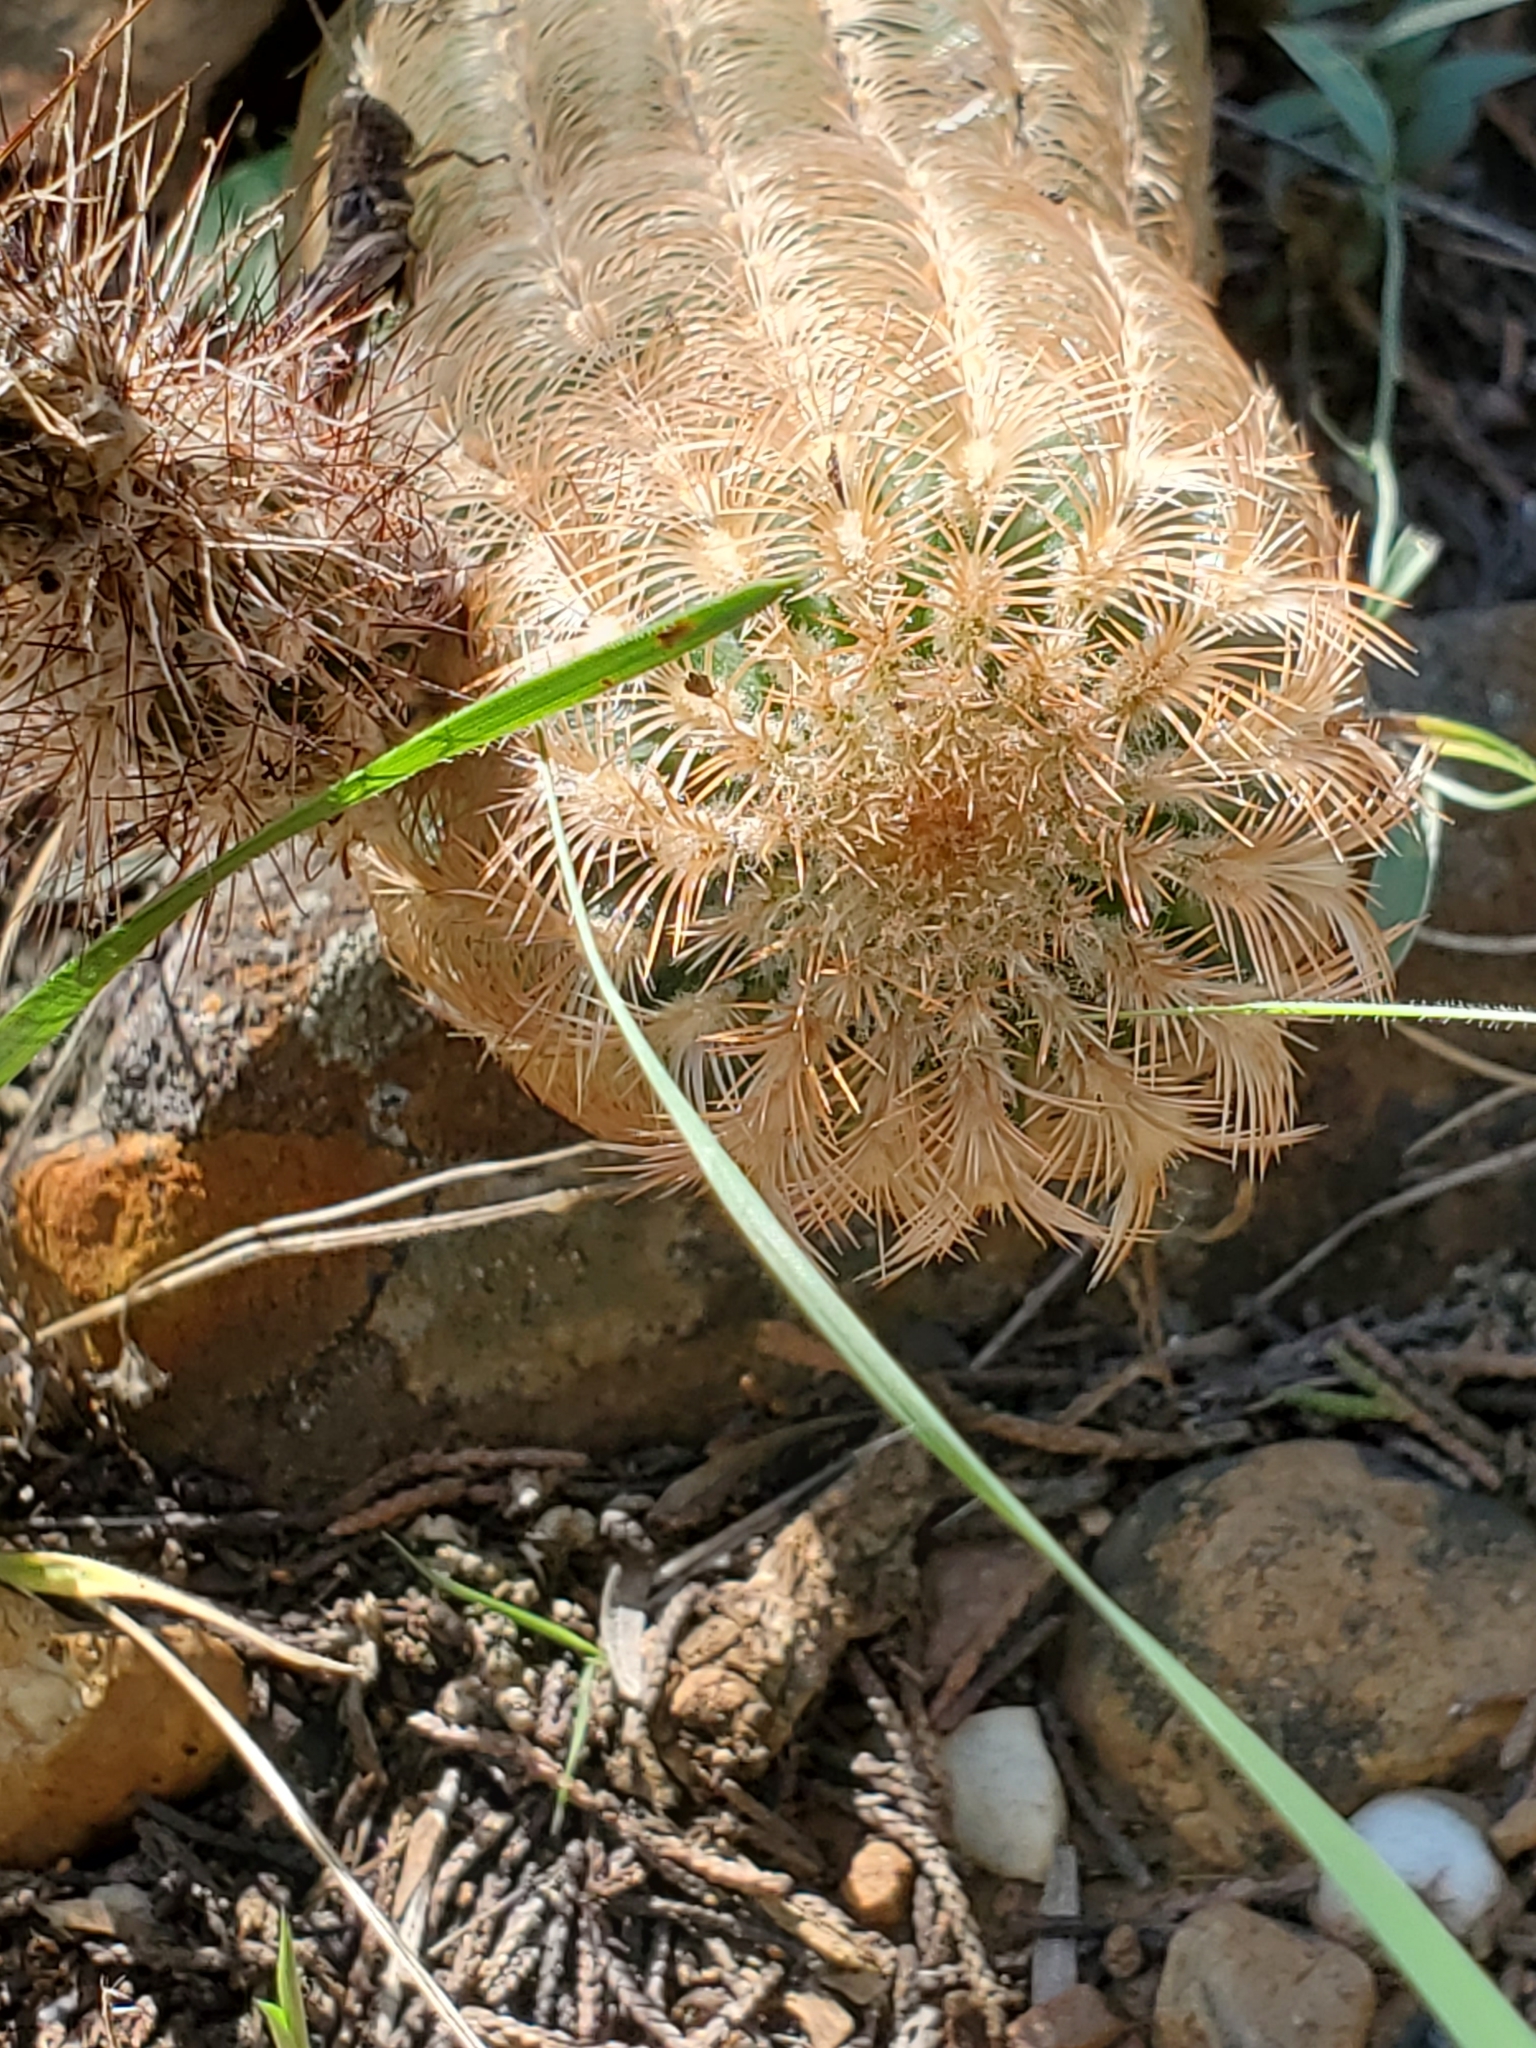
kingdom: Plantae
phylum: Tracheophyta
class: Magnoliopsida
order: Caryophyllales
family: Cactaceae
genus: Echinocereus
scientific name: Echinocereus reichenbachii
